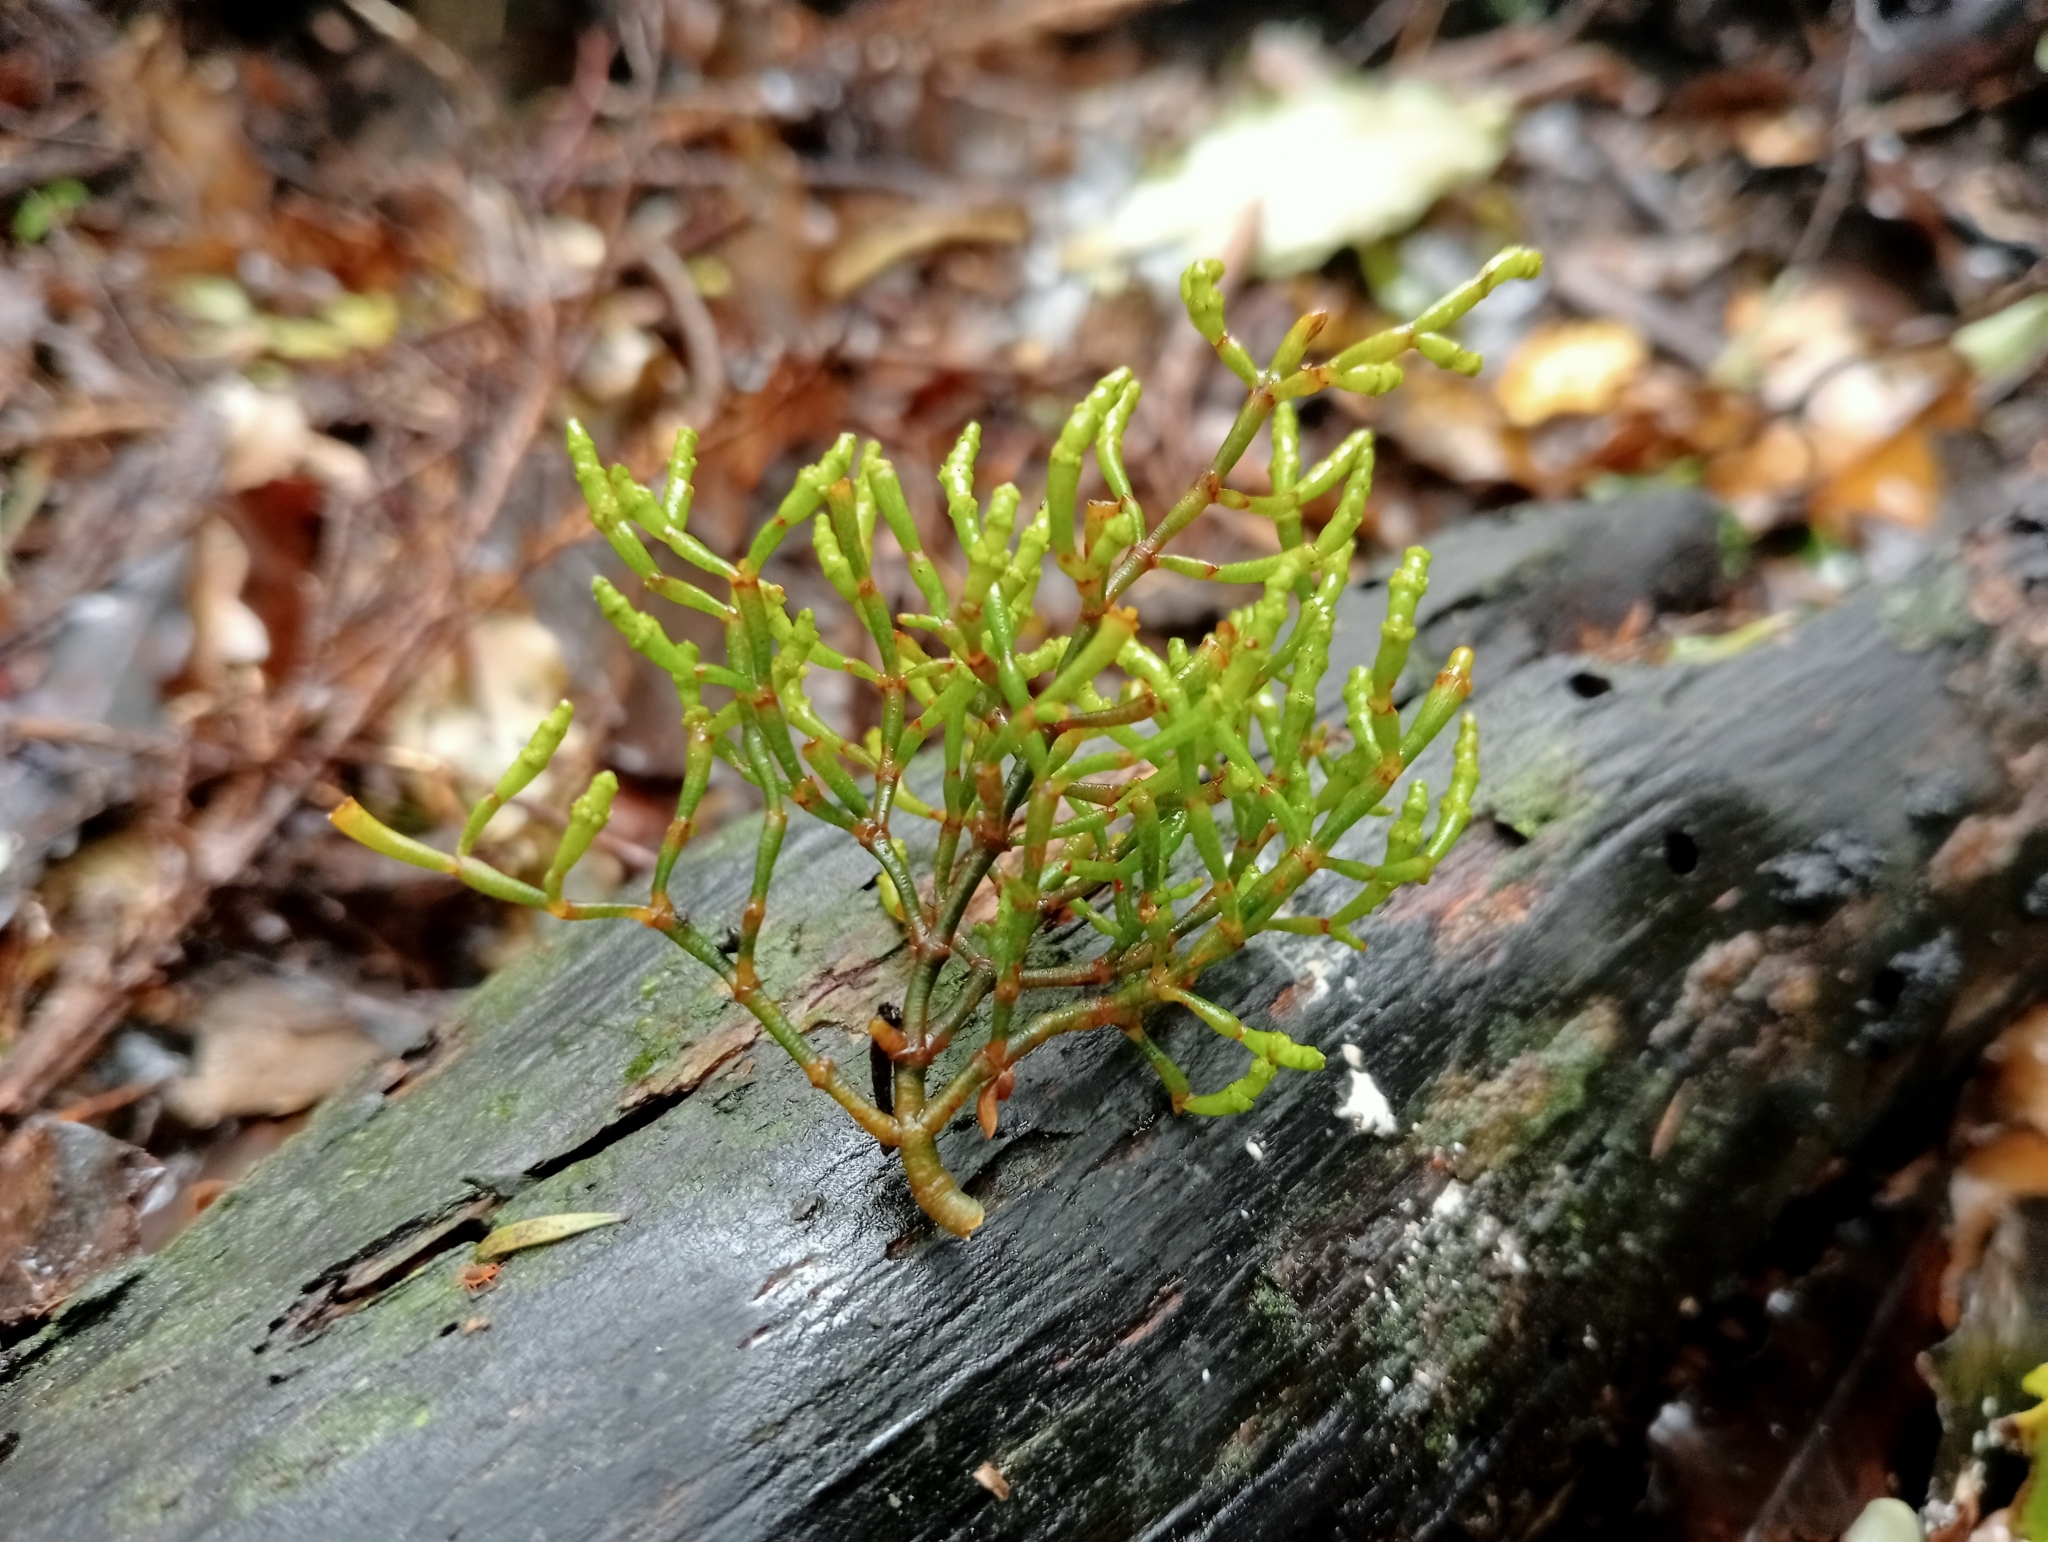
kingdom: Plantae
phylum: Tracheophyta
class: Magnoliopsida
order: Santalales
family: Viscaceae
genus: Korthalsella
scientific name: Korthalsella salicornioides
